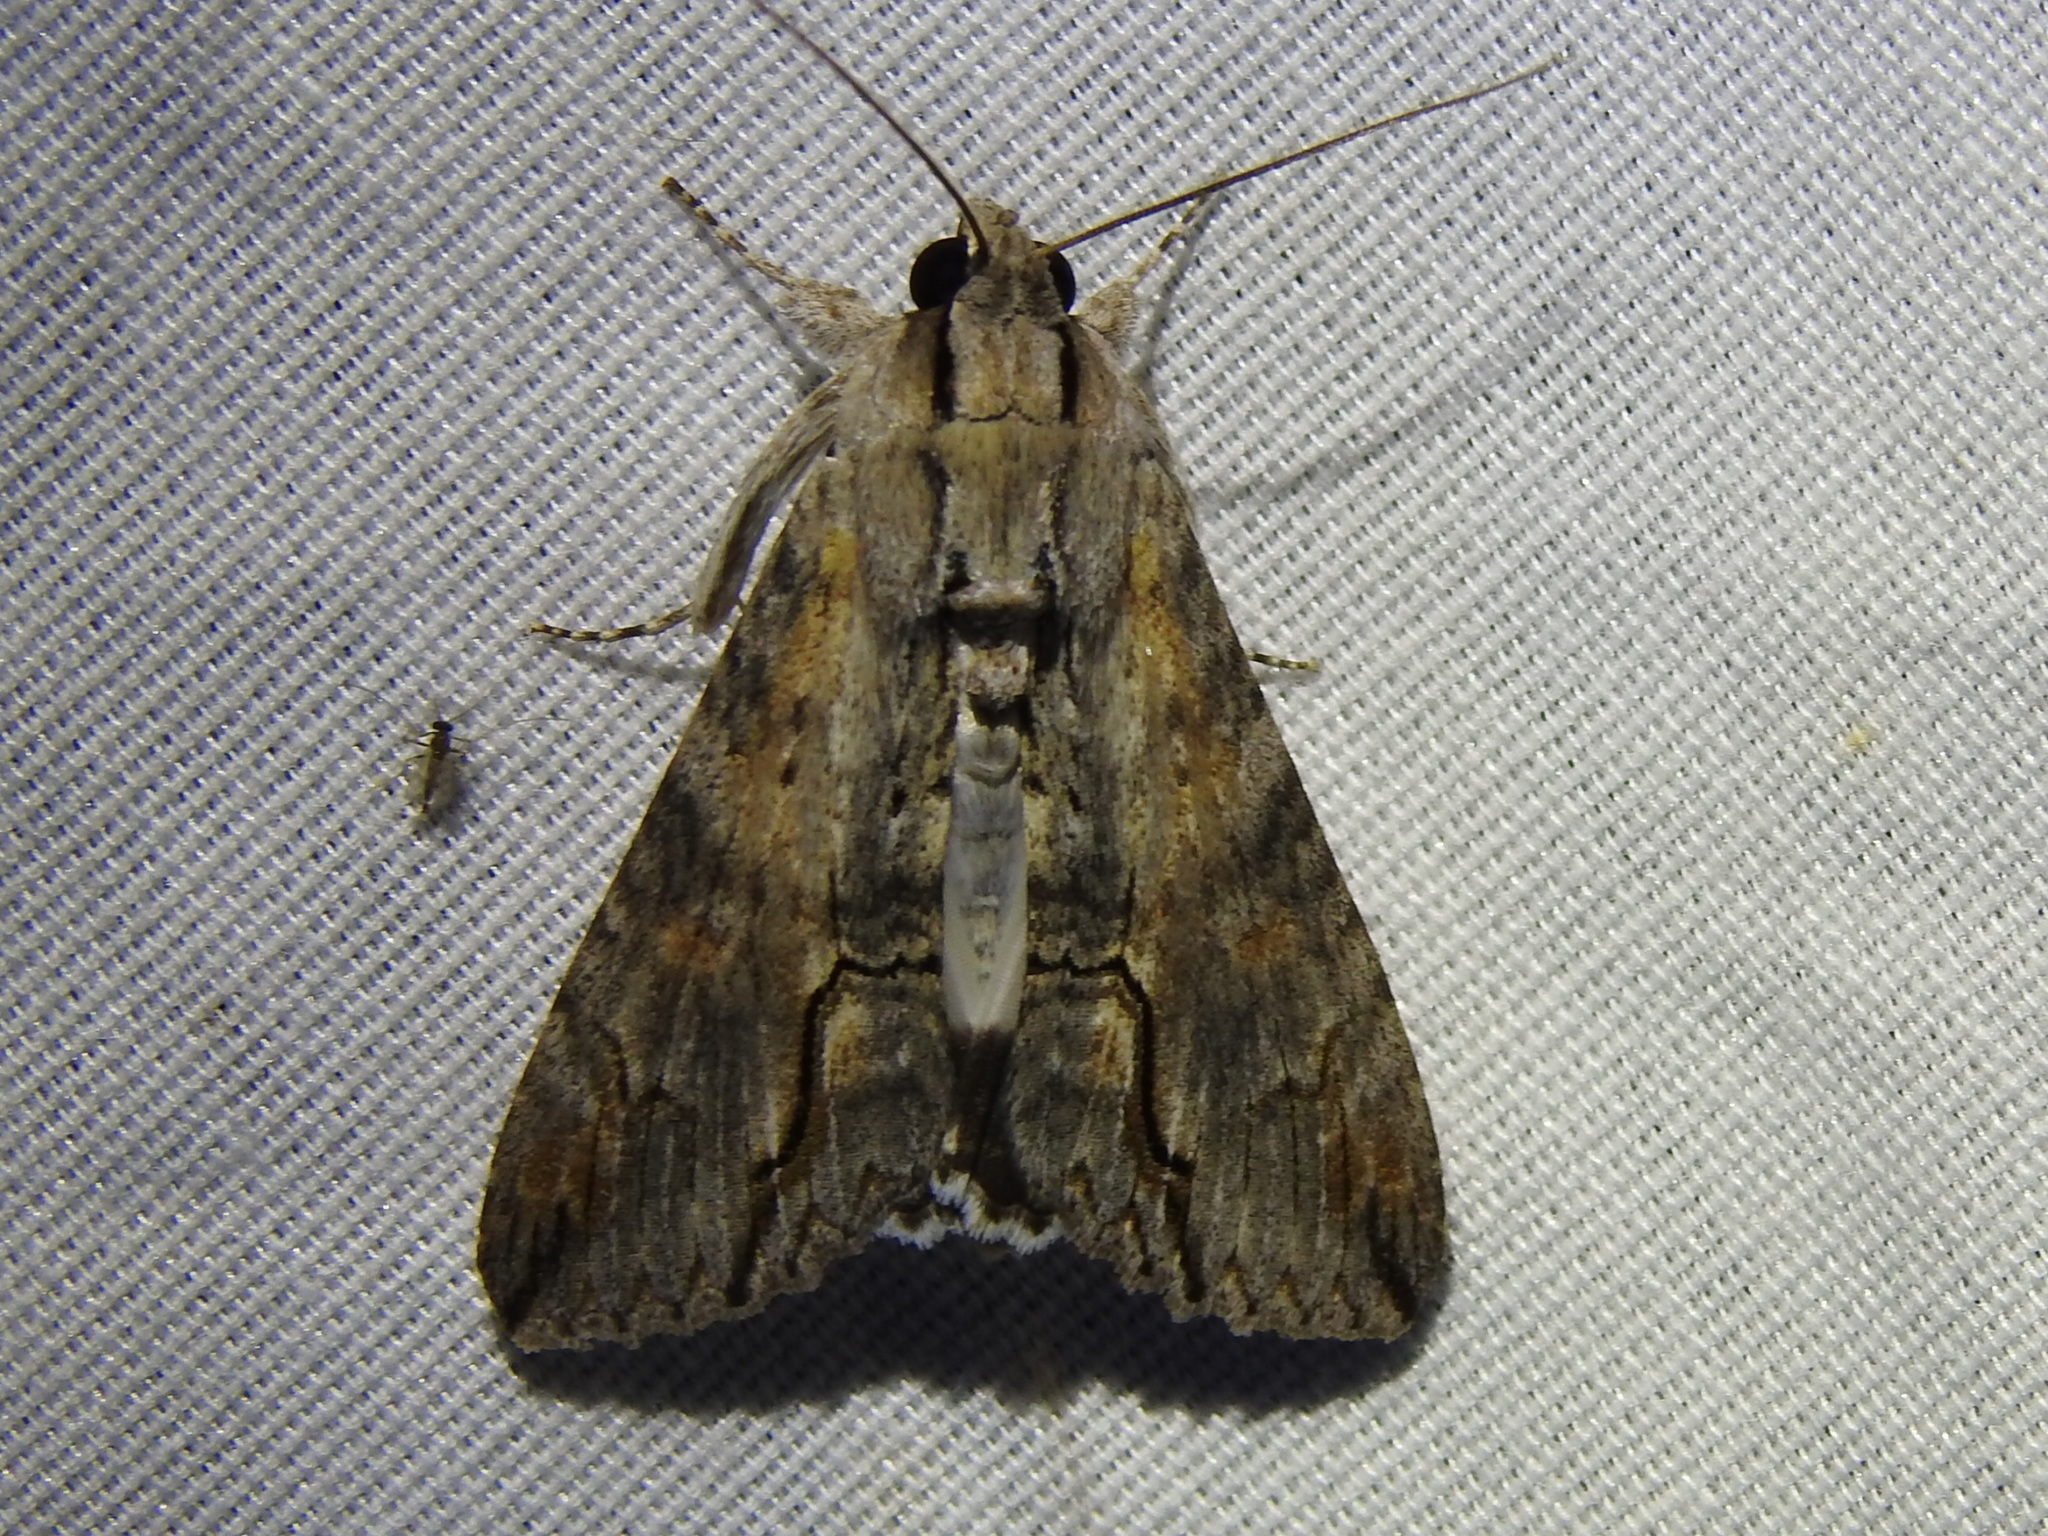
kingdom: Animalia
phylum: Arthropoda
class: Insecta
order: Lepidoptera
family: Erebidae
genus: Melipotis
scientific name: Melipotis acontioides
